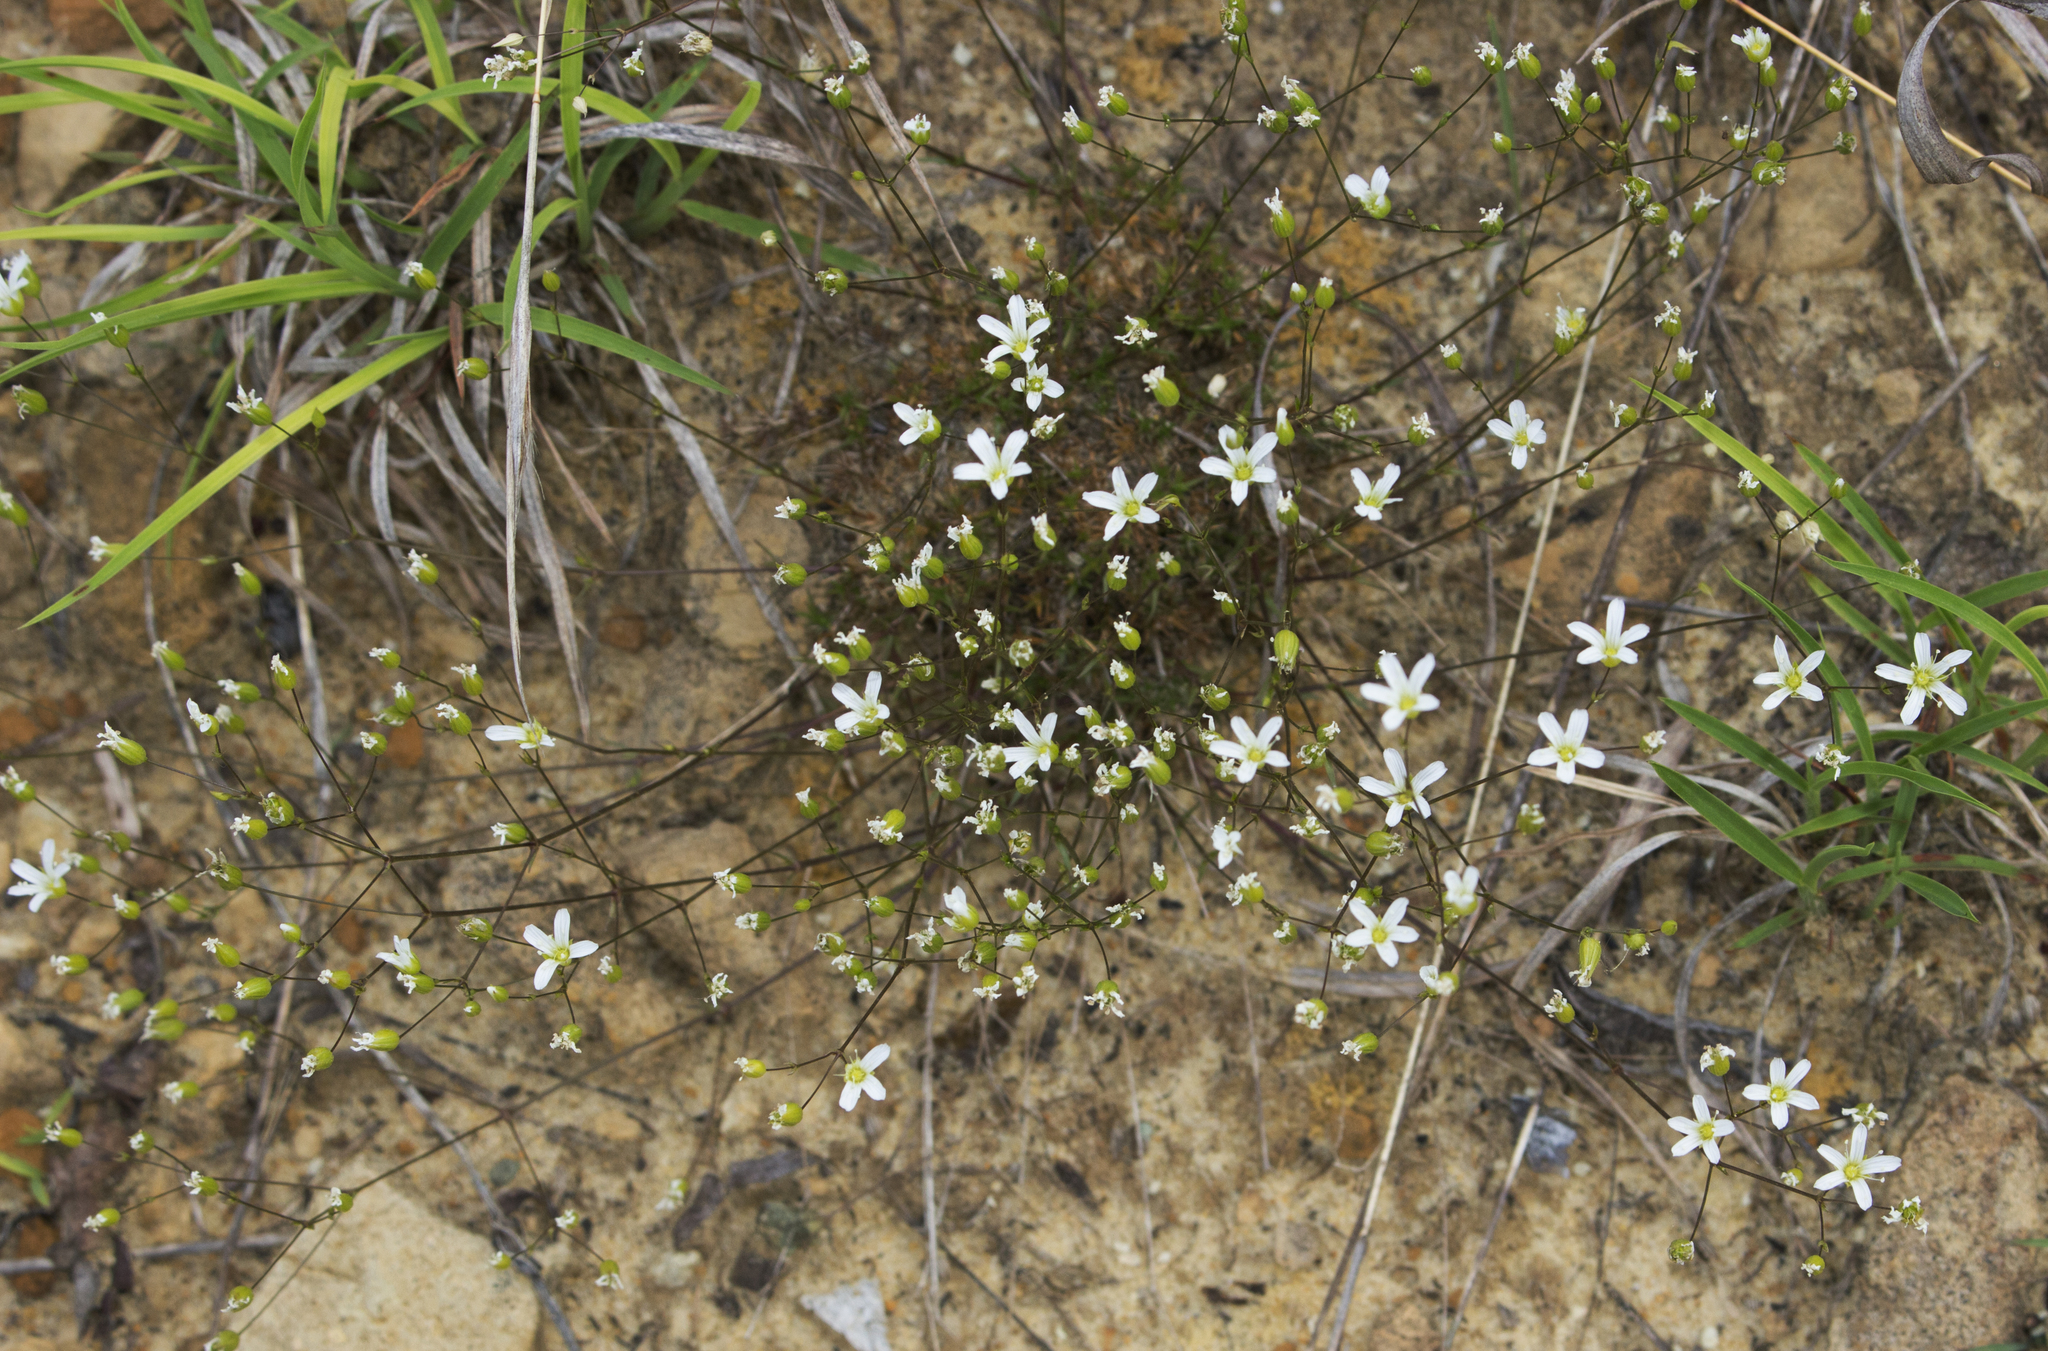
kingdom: Plantae
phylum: Tracheophyta
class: Magnoliopsida
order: Caryophyllales
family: Caryophyllaceae
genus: Sabulina
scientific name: Sabulina michauxii
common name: Michaux's stitchwort
